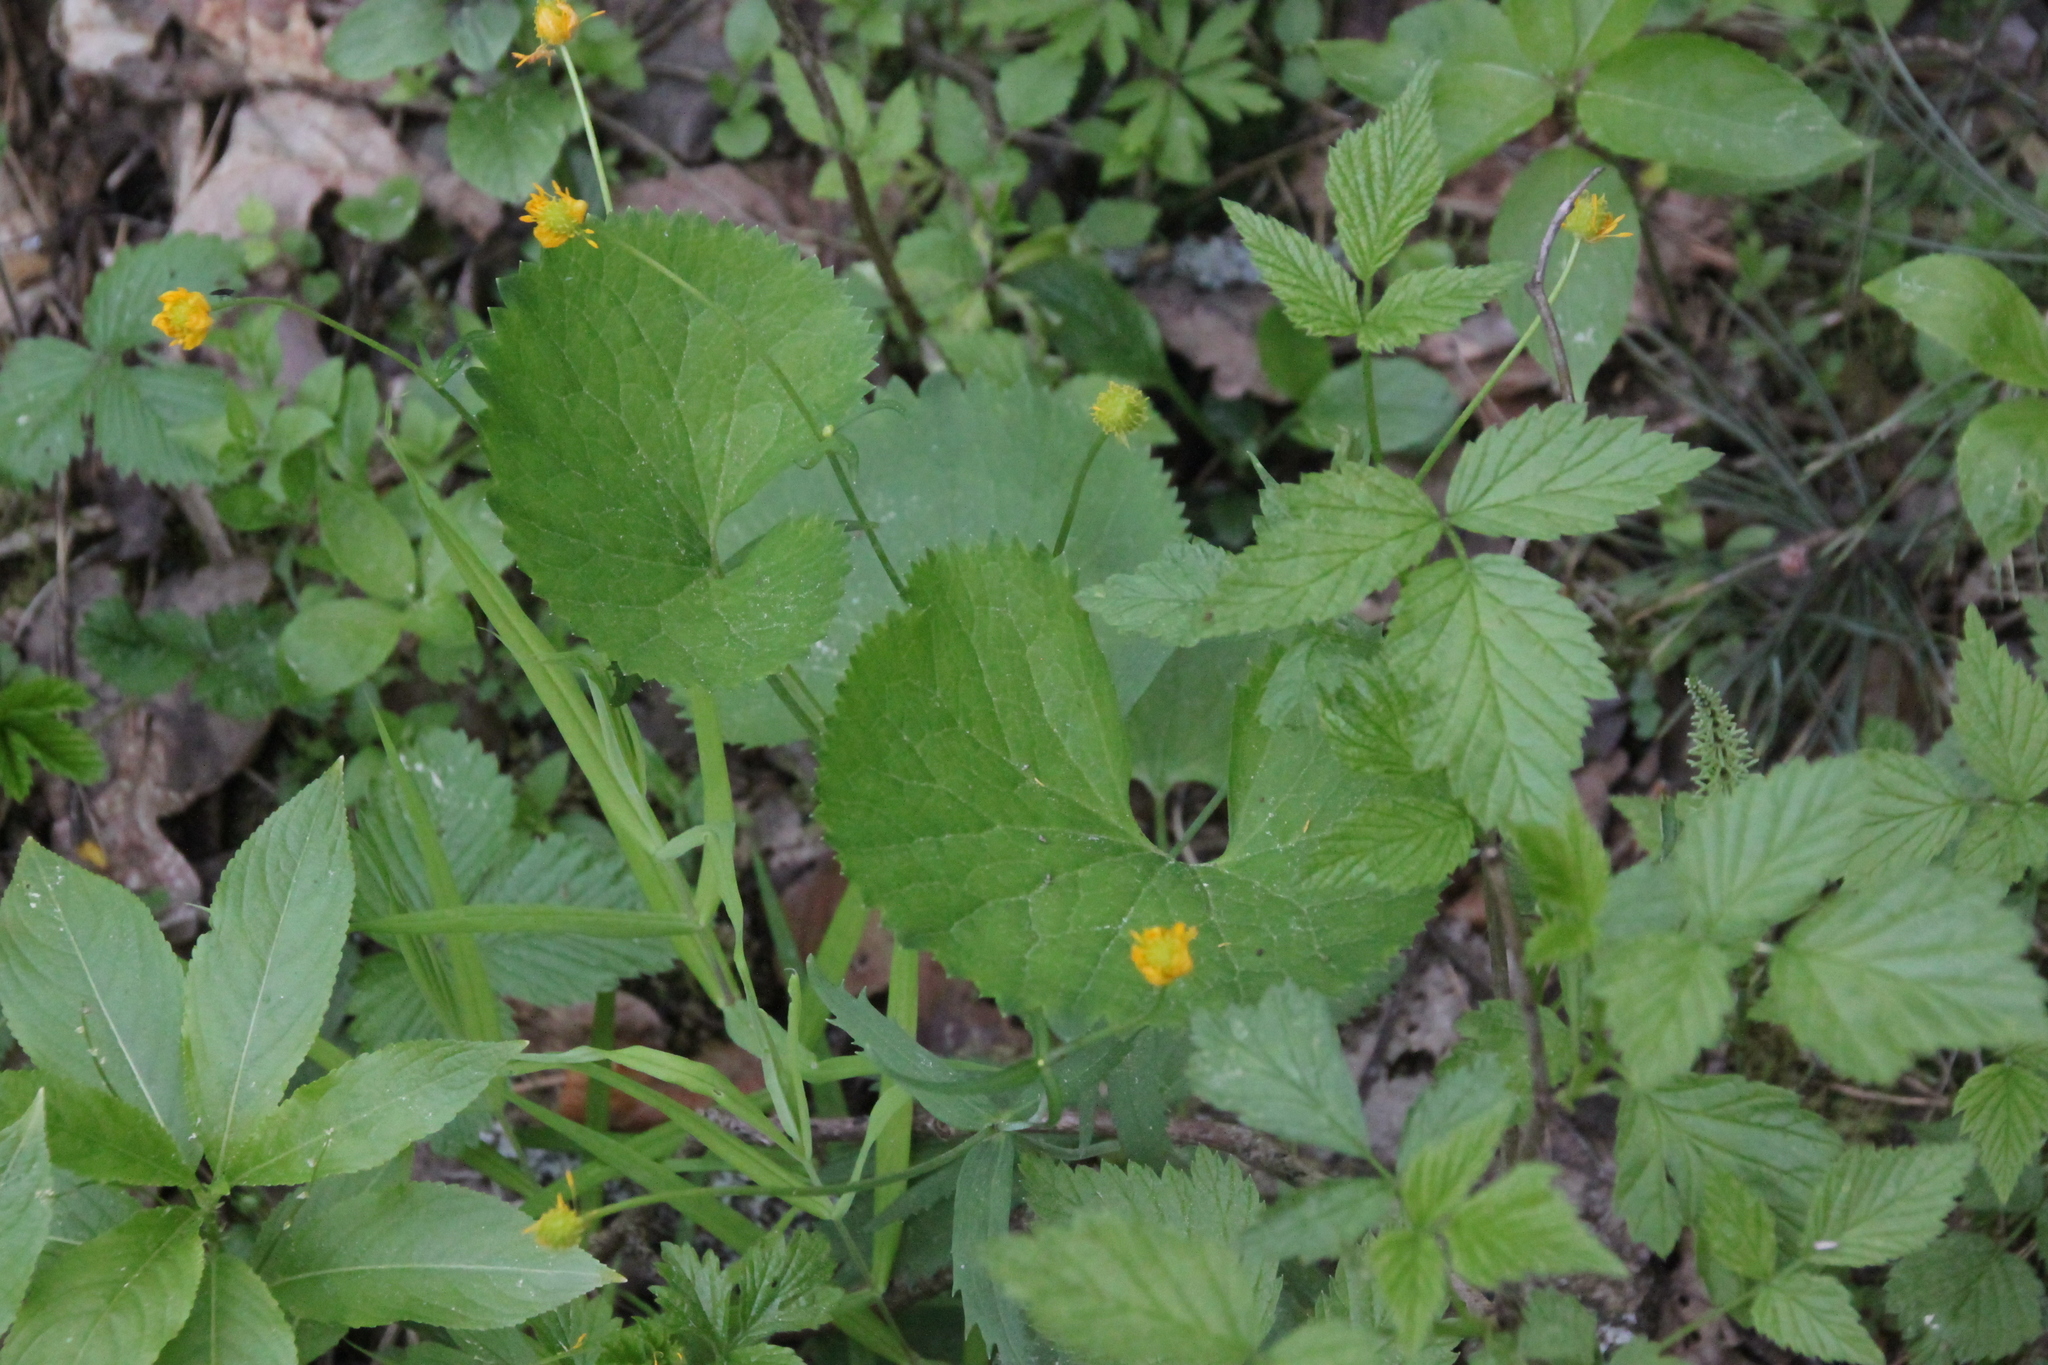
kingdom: Plantae
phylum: Tracheophyta
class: Magnoliopsida
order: Ranunculales
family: Ranunculaceae
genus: Ranunculus
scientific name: Ranunculus cassubicus
